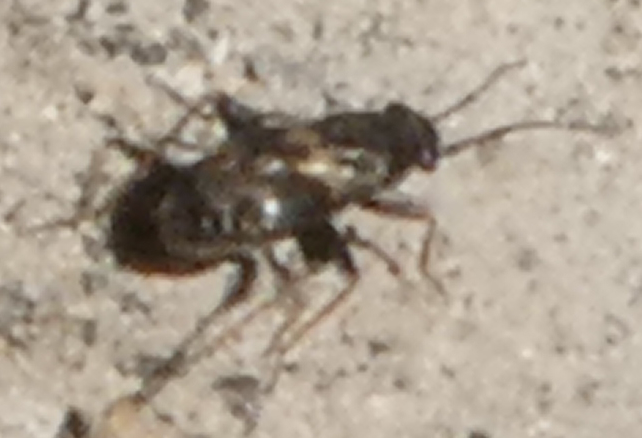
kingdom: Animalia
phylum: Arthropoda
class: Insecta
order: Hemiptera
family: Miridae
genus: Spanagonicus
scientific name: Spanagonicus albofasciatus
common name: Whitemarked fleahopper
